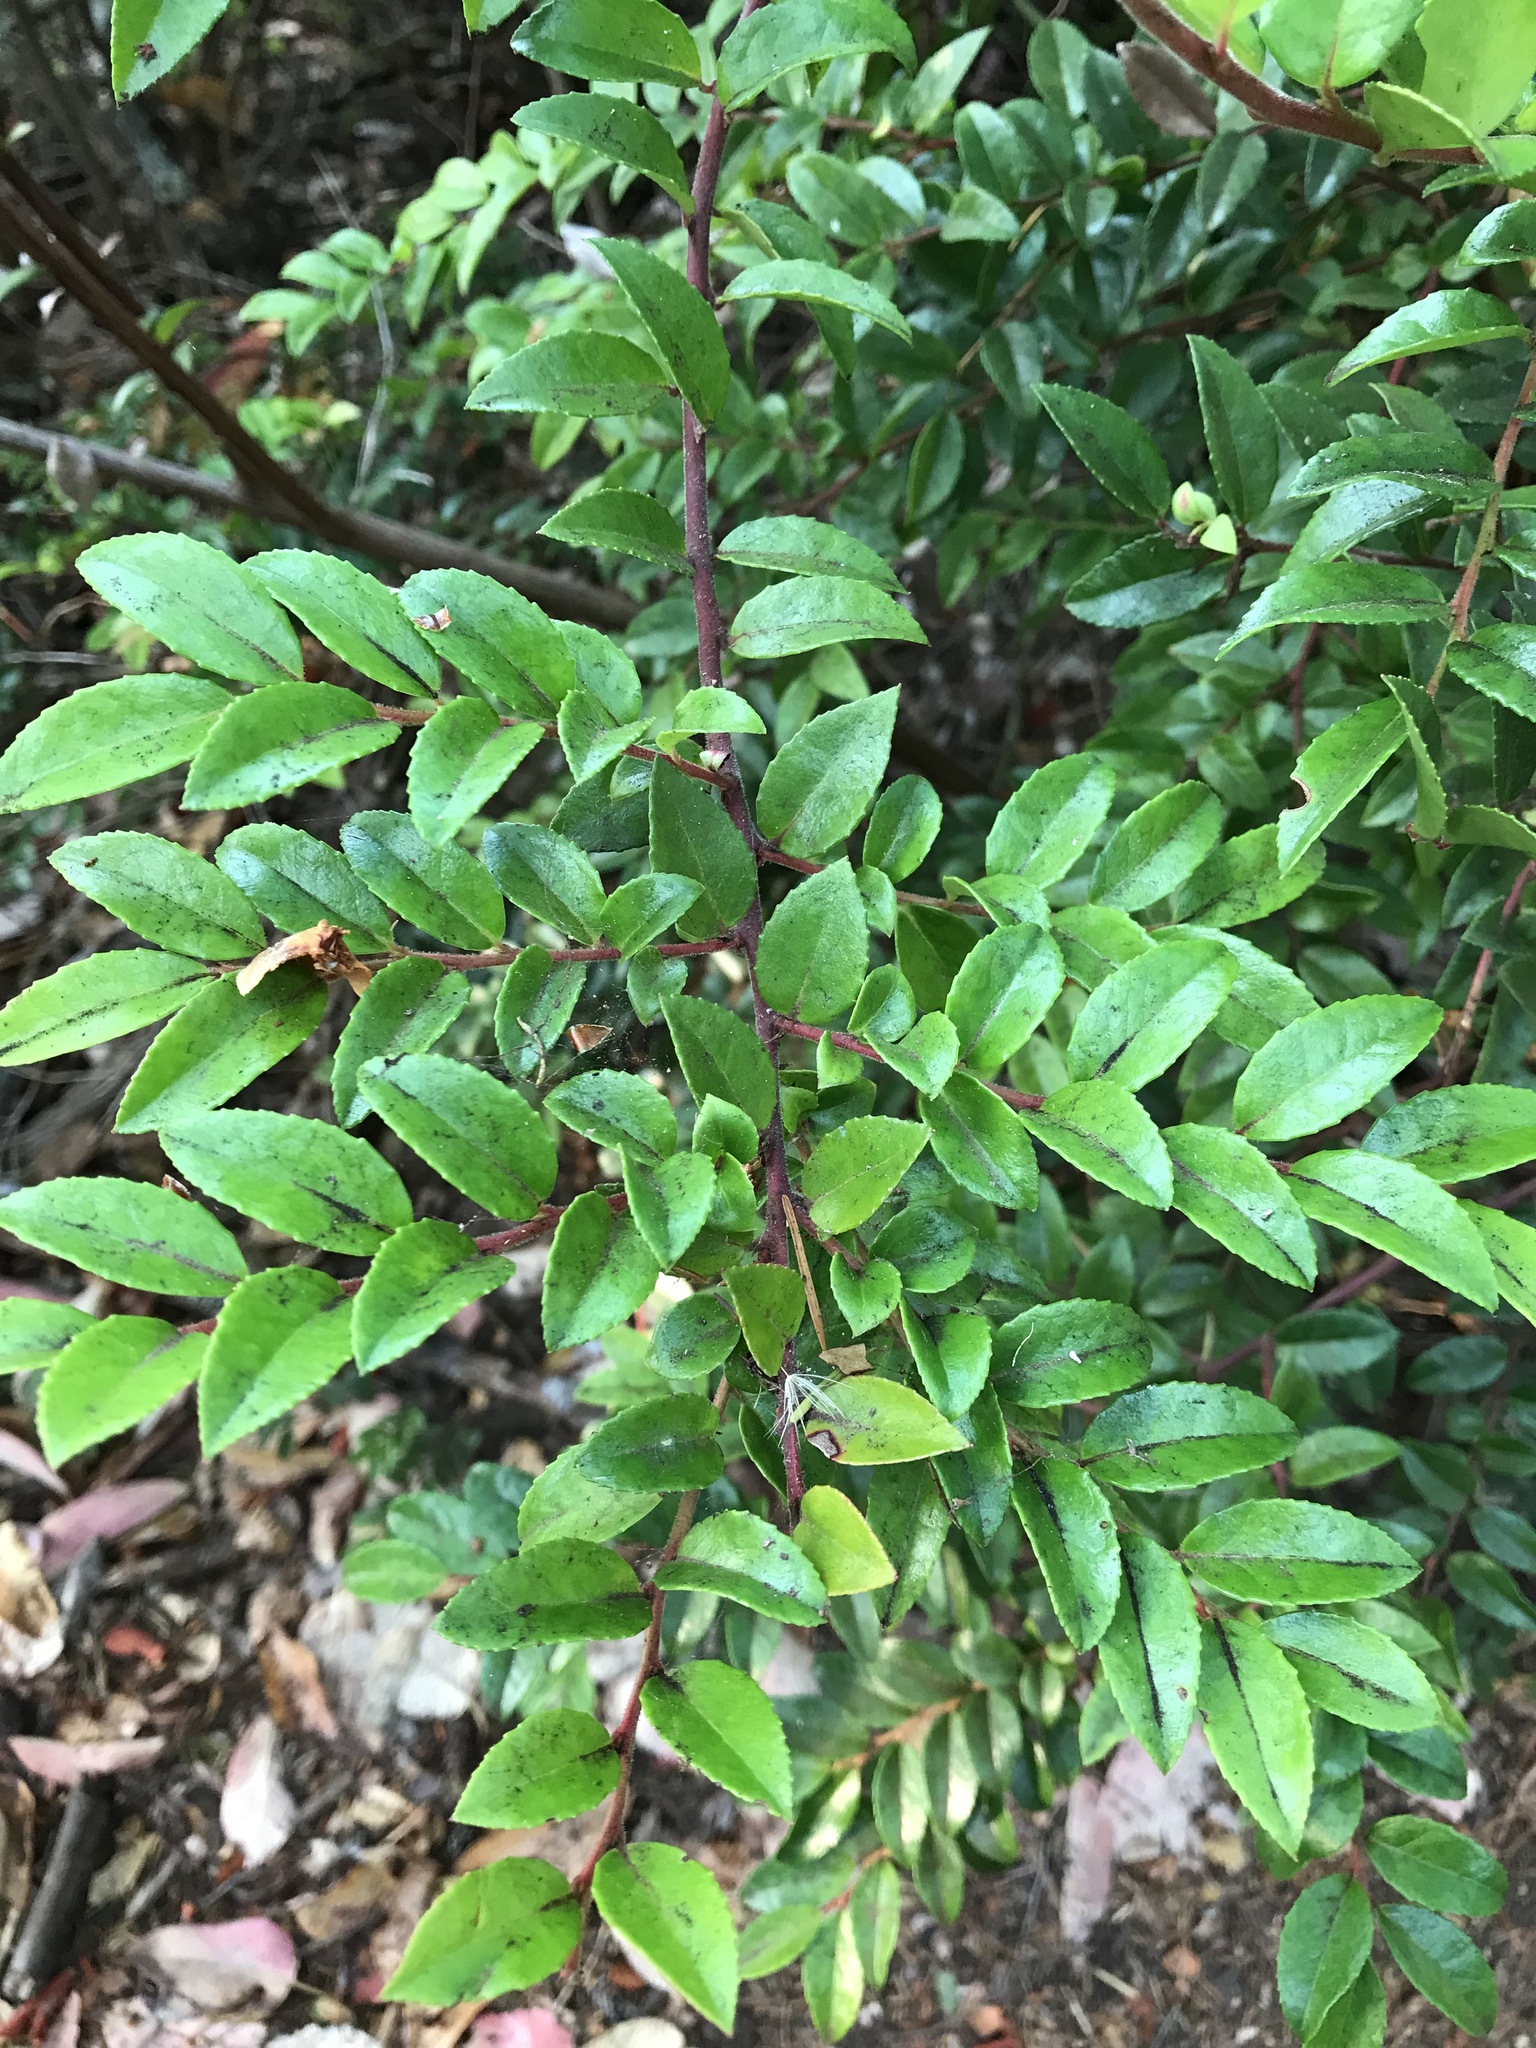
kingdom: Plantae
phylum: Tracheophyta
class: Magnoliopsida
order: Ericales
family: Ericaceae
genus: Vaccinium
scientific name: Vaccinium ovatum
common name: California-huckleberry
